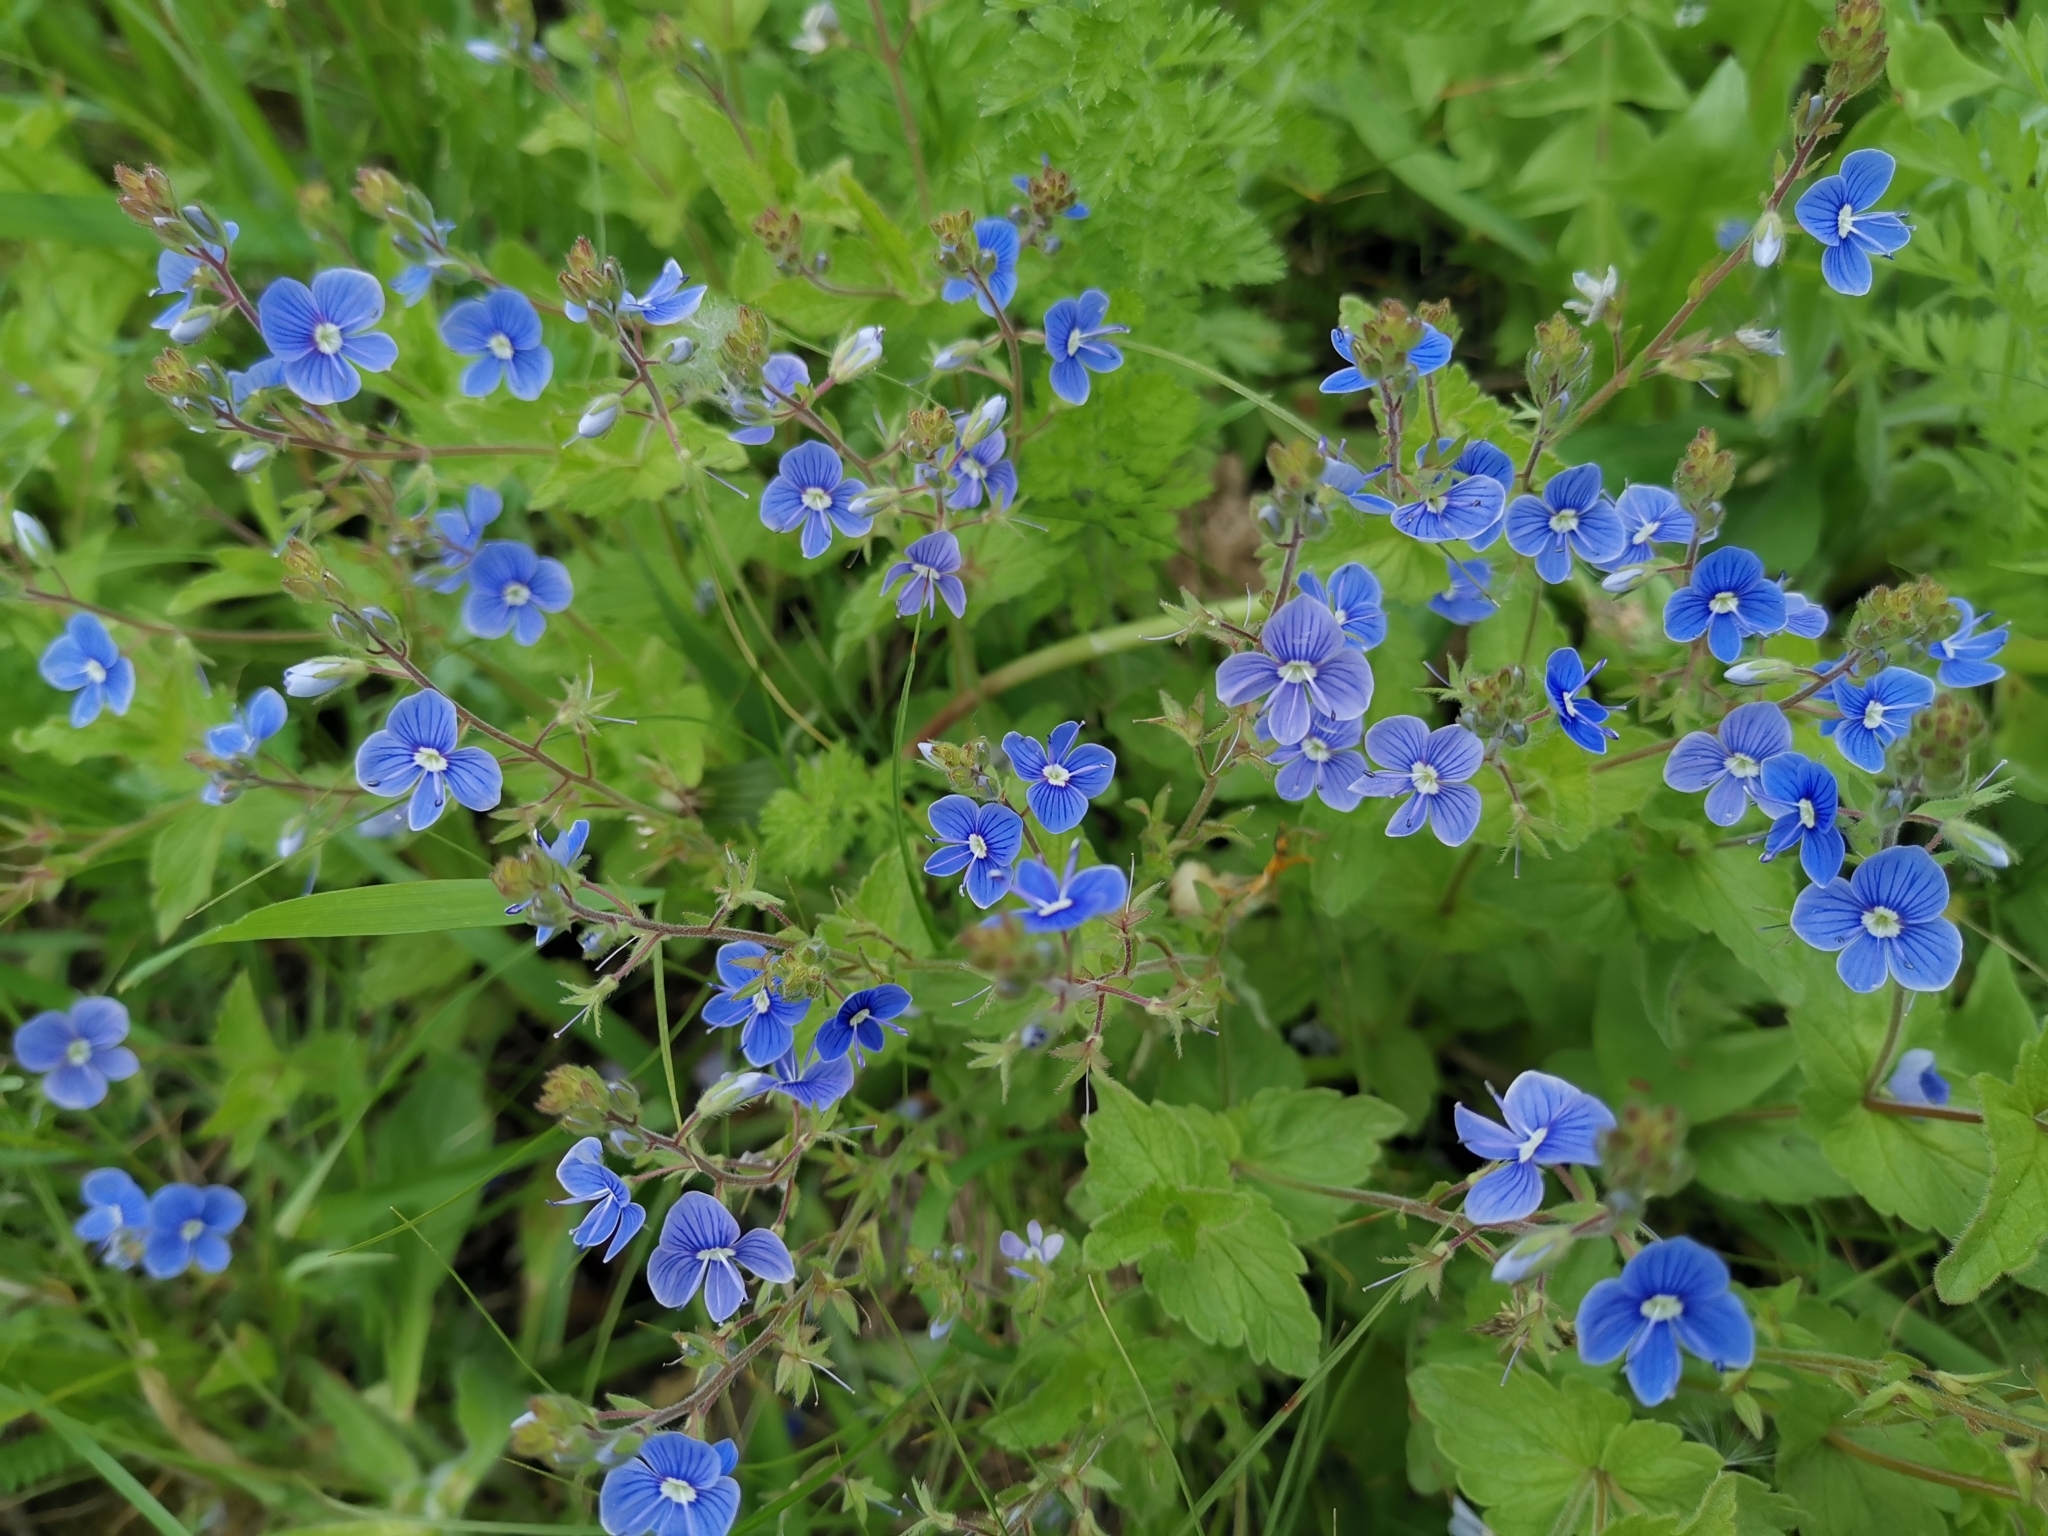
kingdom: Plantae
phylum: Tracheophyta
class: Magnoliopsida
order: Lamiales
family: Plantaginaceae
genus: Veronica
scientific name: Veronica chamaedrys
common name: Germander speedwell
